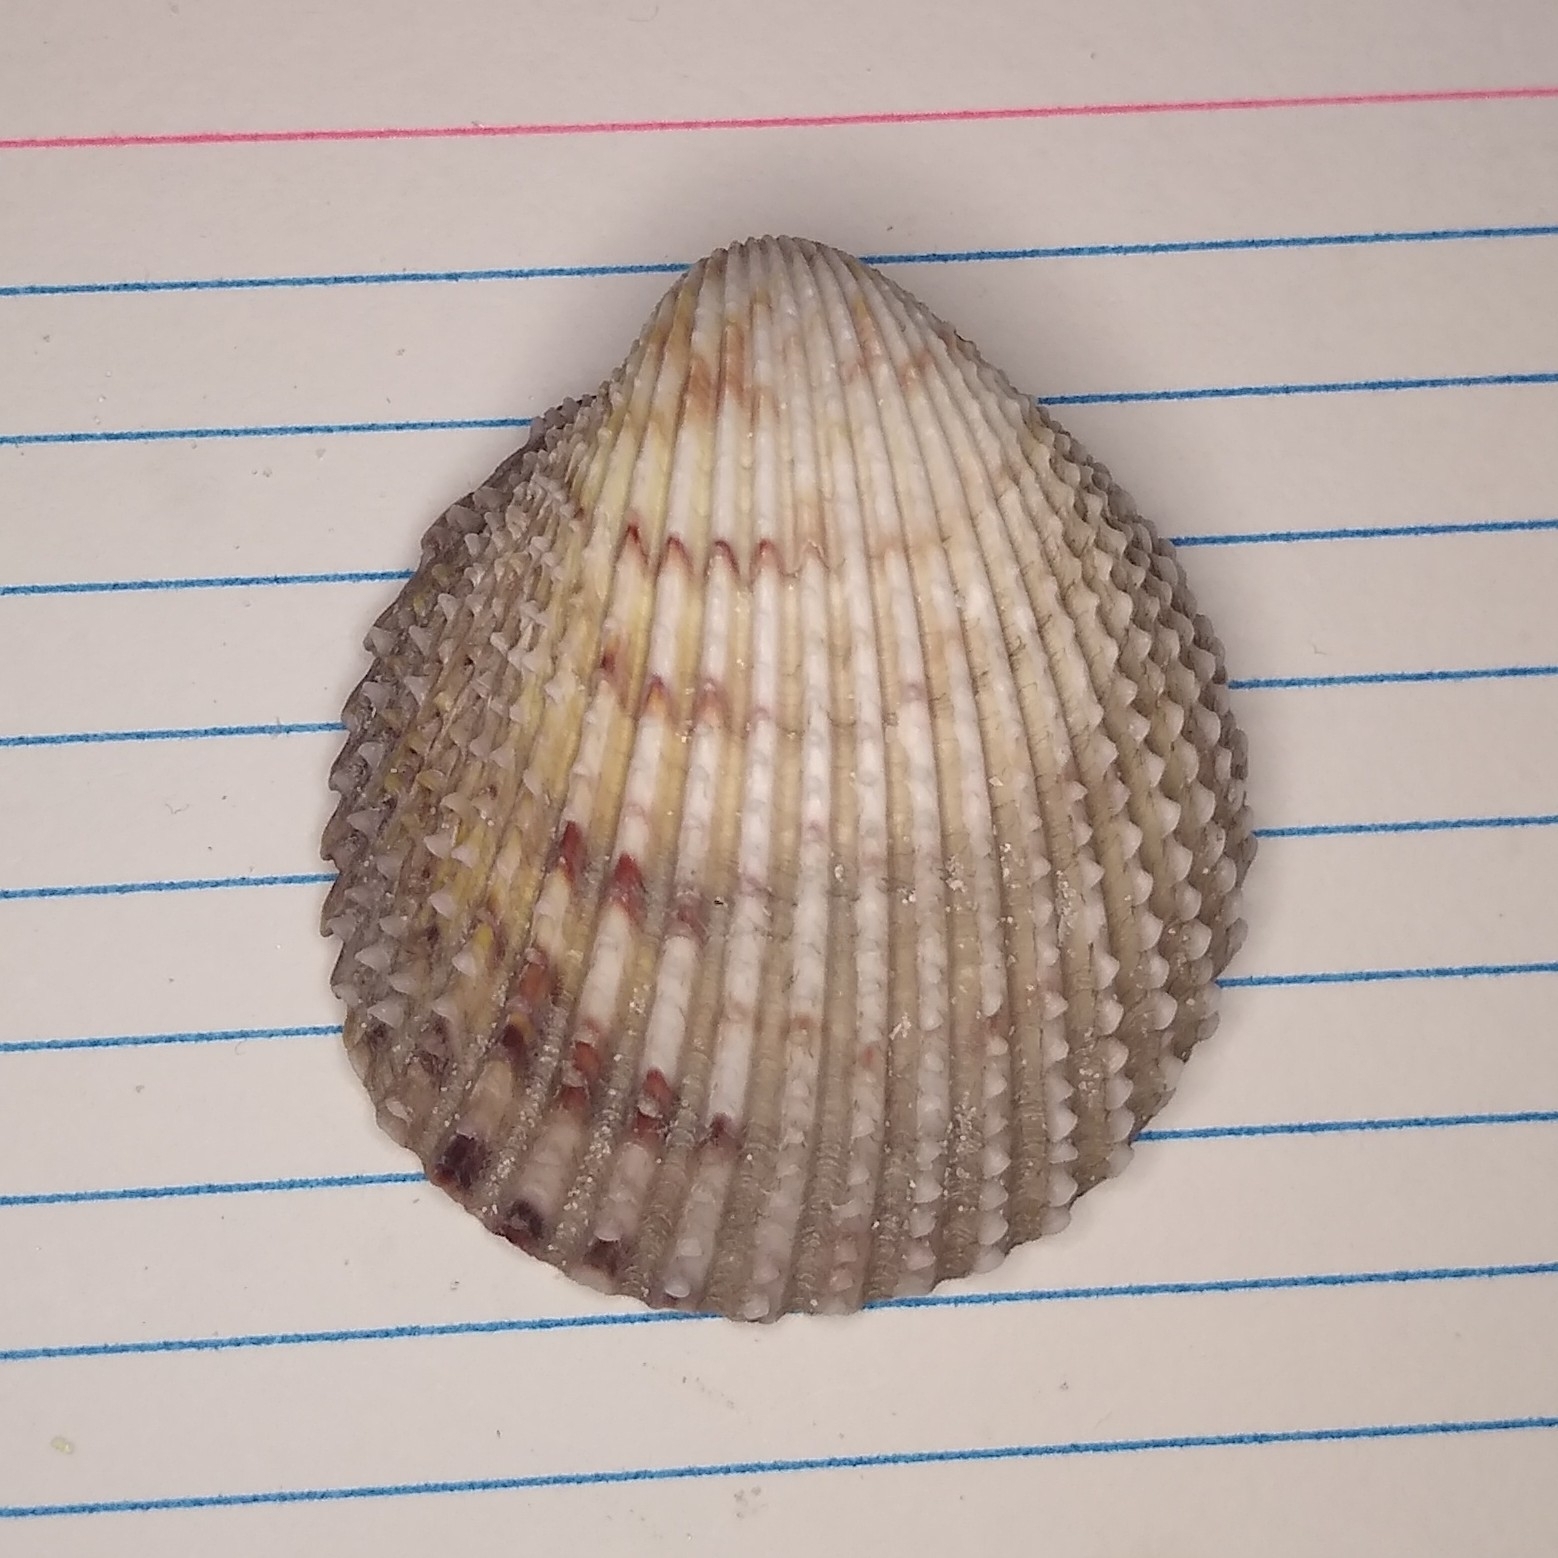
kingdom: Animalia
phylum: Mollusca
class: Bivalvia
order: Cardiida
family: Cardiidae
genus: Trachycardium
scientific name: Trachycardium egmontianum
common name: Florida pricklycockle
